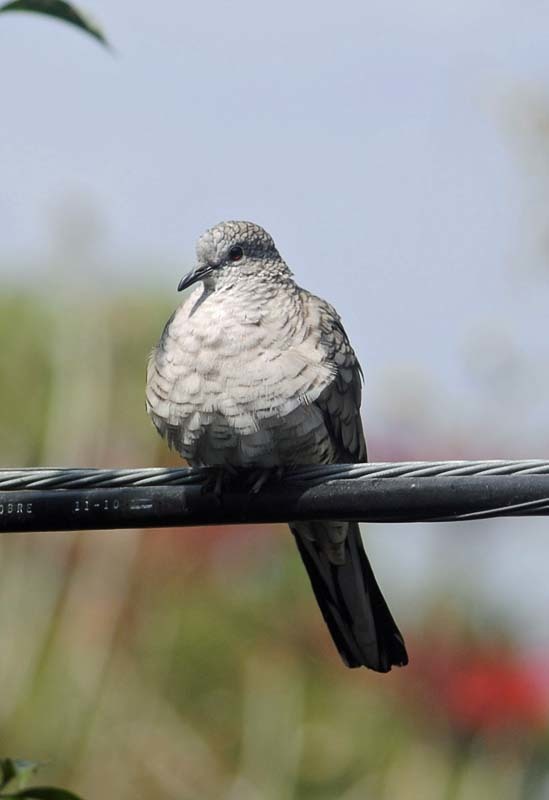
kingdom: Animalia
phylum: Chordata
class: Aves
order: Columbiformes
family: Columbidae
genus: Columbina
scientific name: Columbina inca
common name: Inca dove
